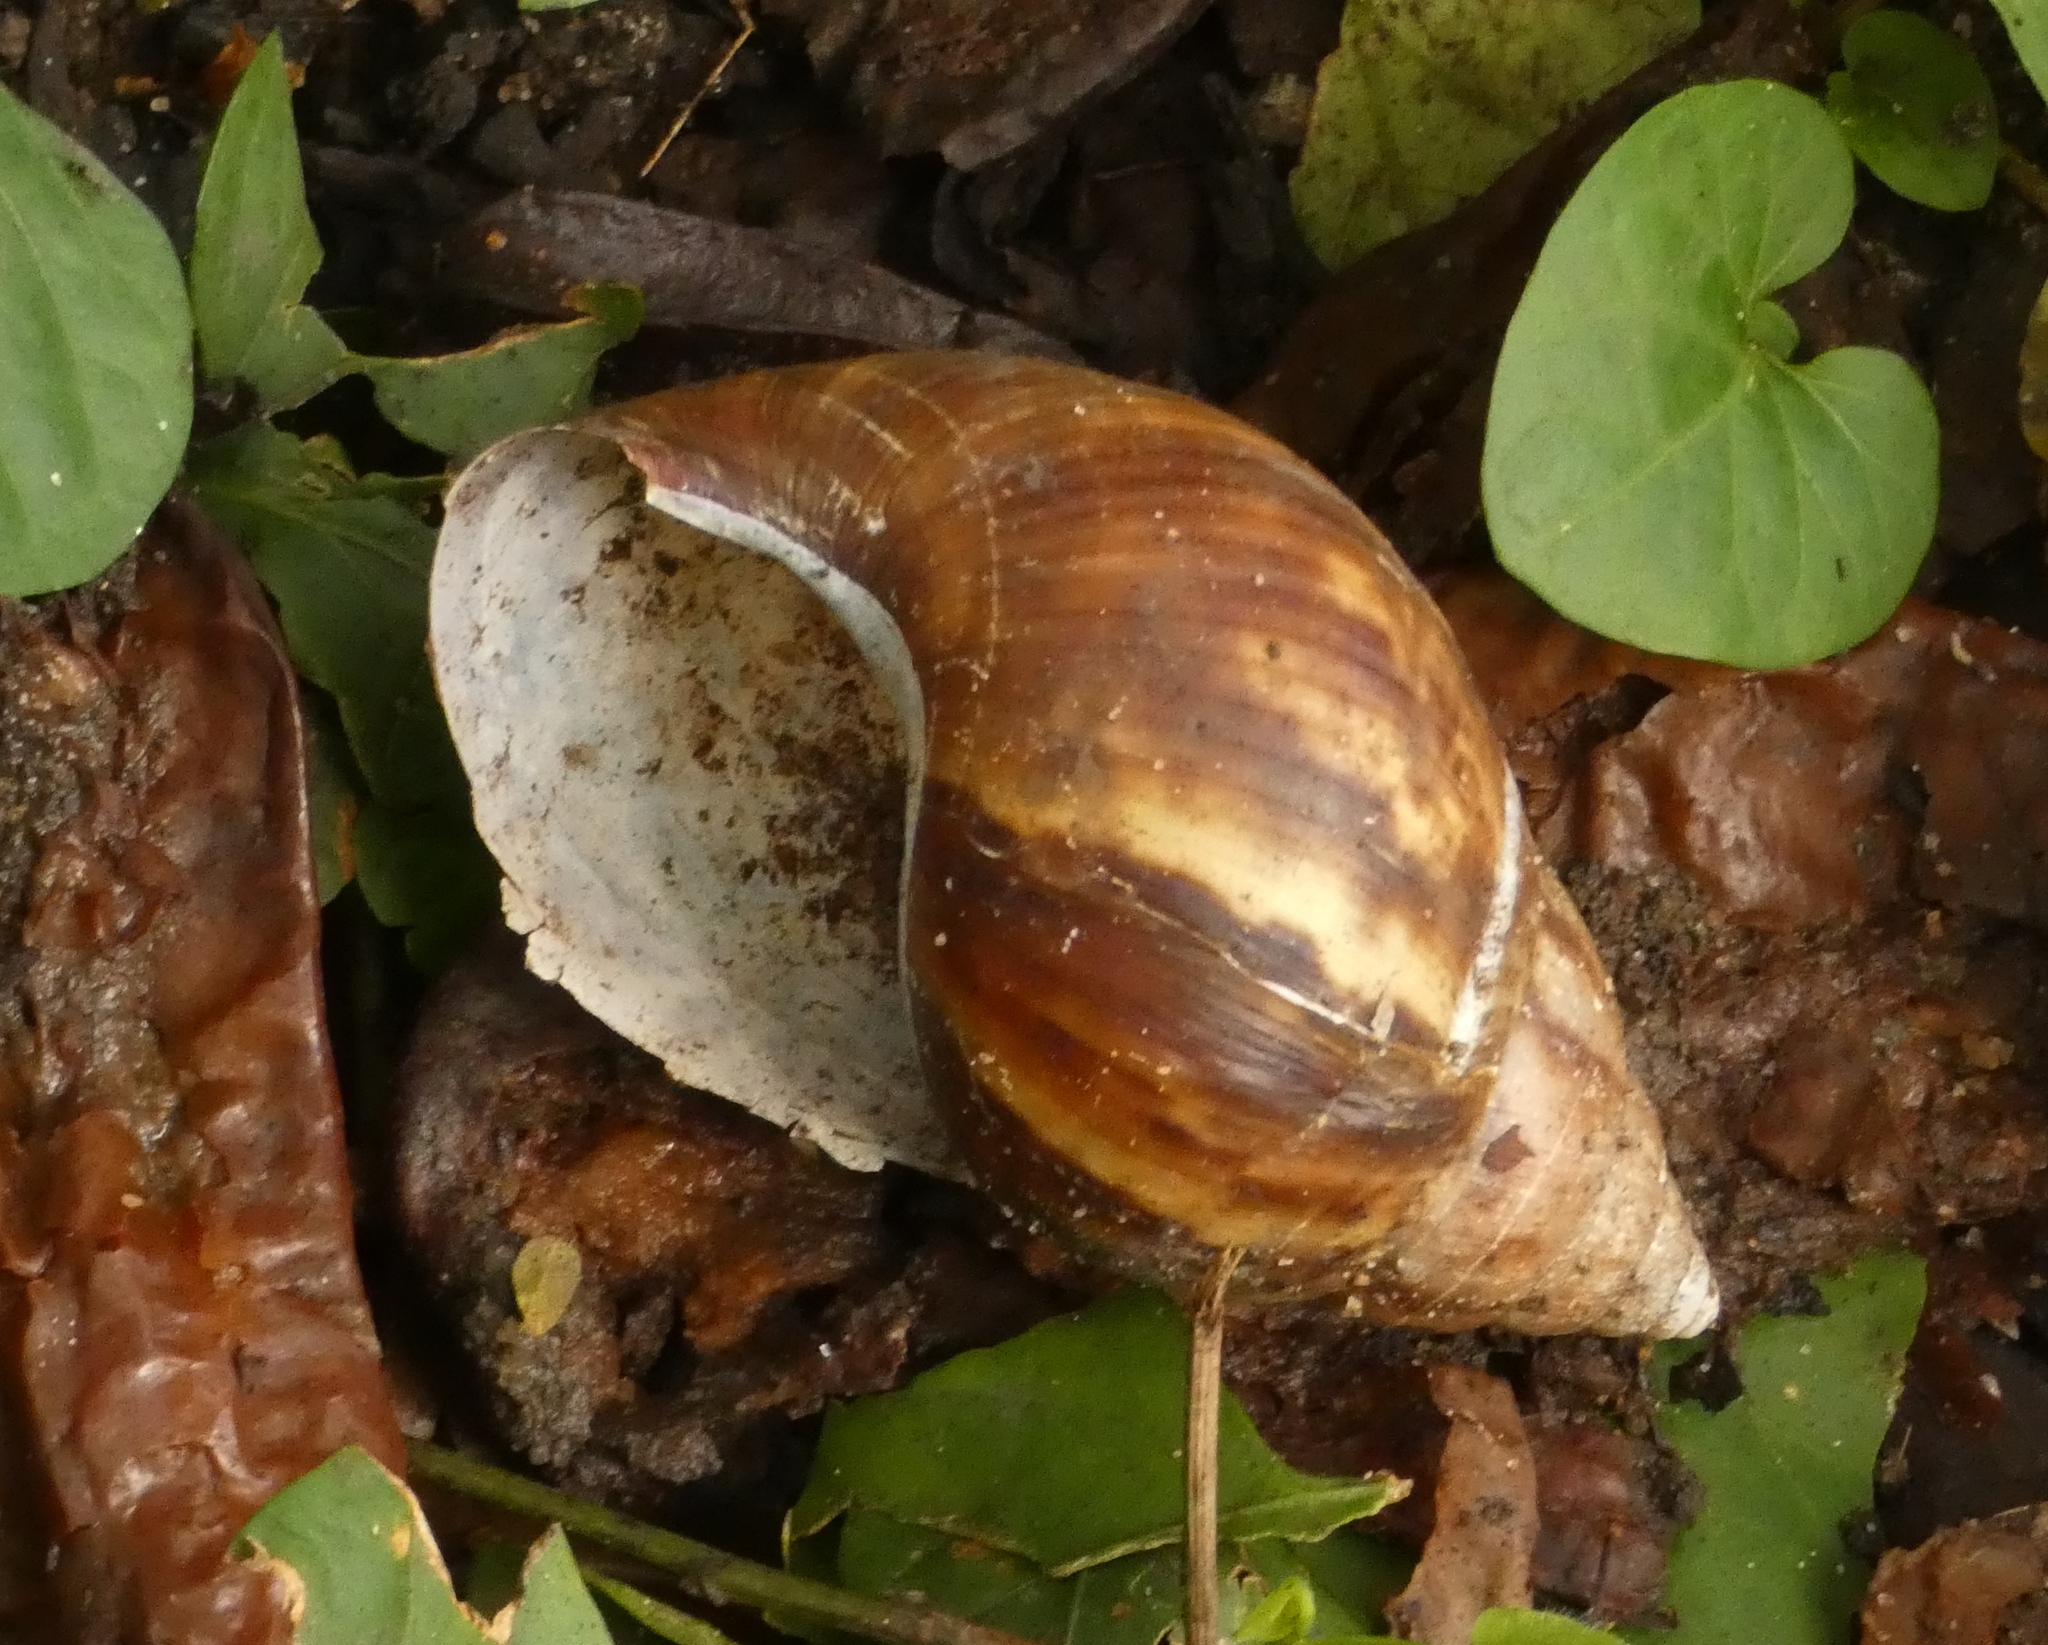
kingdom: Animalia
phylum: Mollusca
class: Gastropoda
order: Stylommatophora
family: Achatinidae
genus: Lissachatina
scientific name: Lissachatina fulica
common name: Giant african snail
